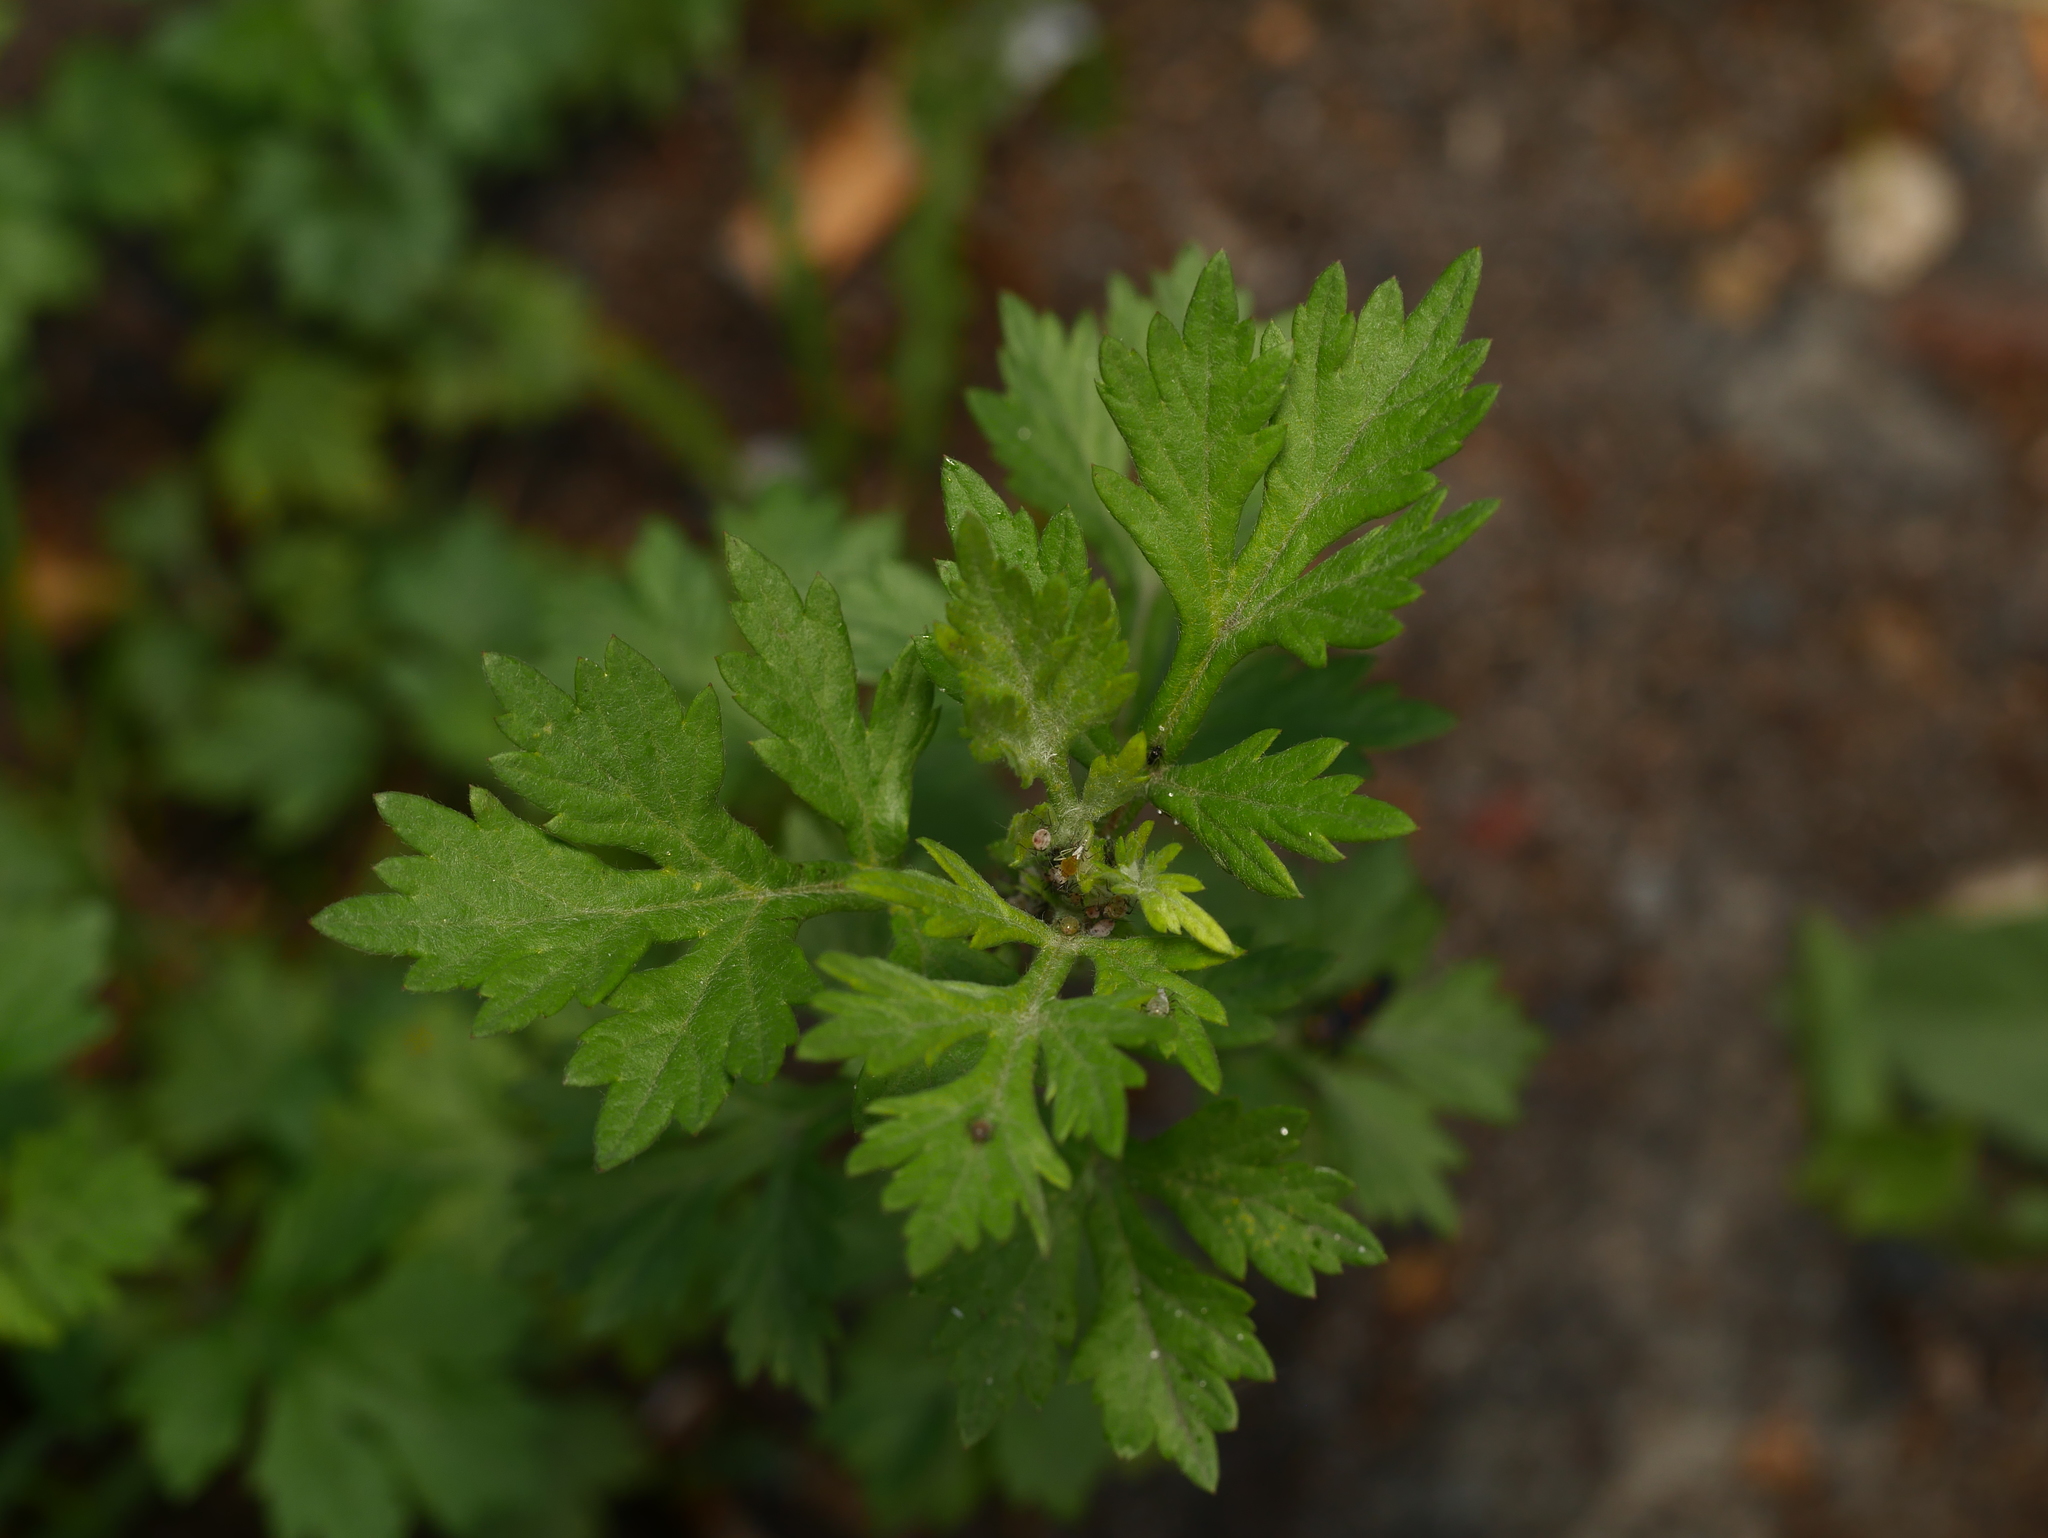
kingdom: Plantae
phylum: Tracheophyta
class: Magnoliopsida
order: Asterales
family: Asteraceae
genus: Artemisia
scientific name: Artemisia vulgaris
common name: Mugwort
